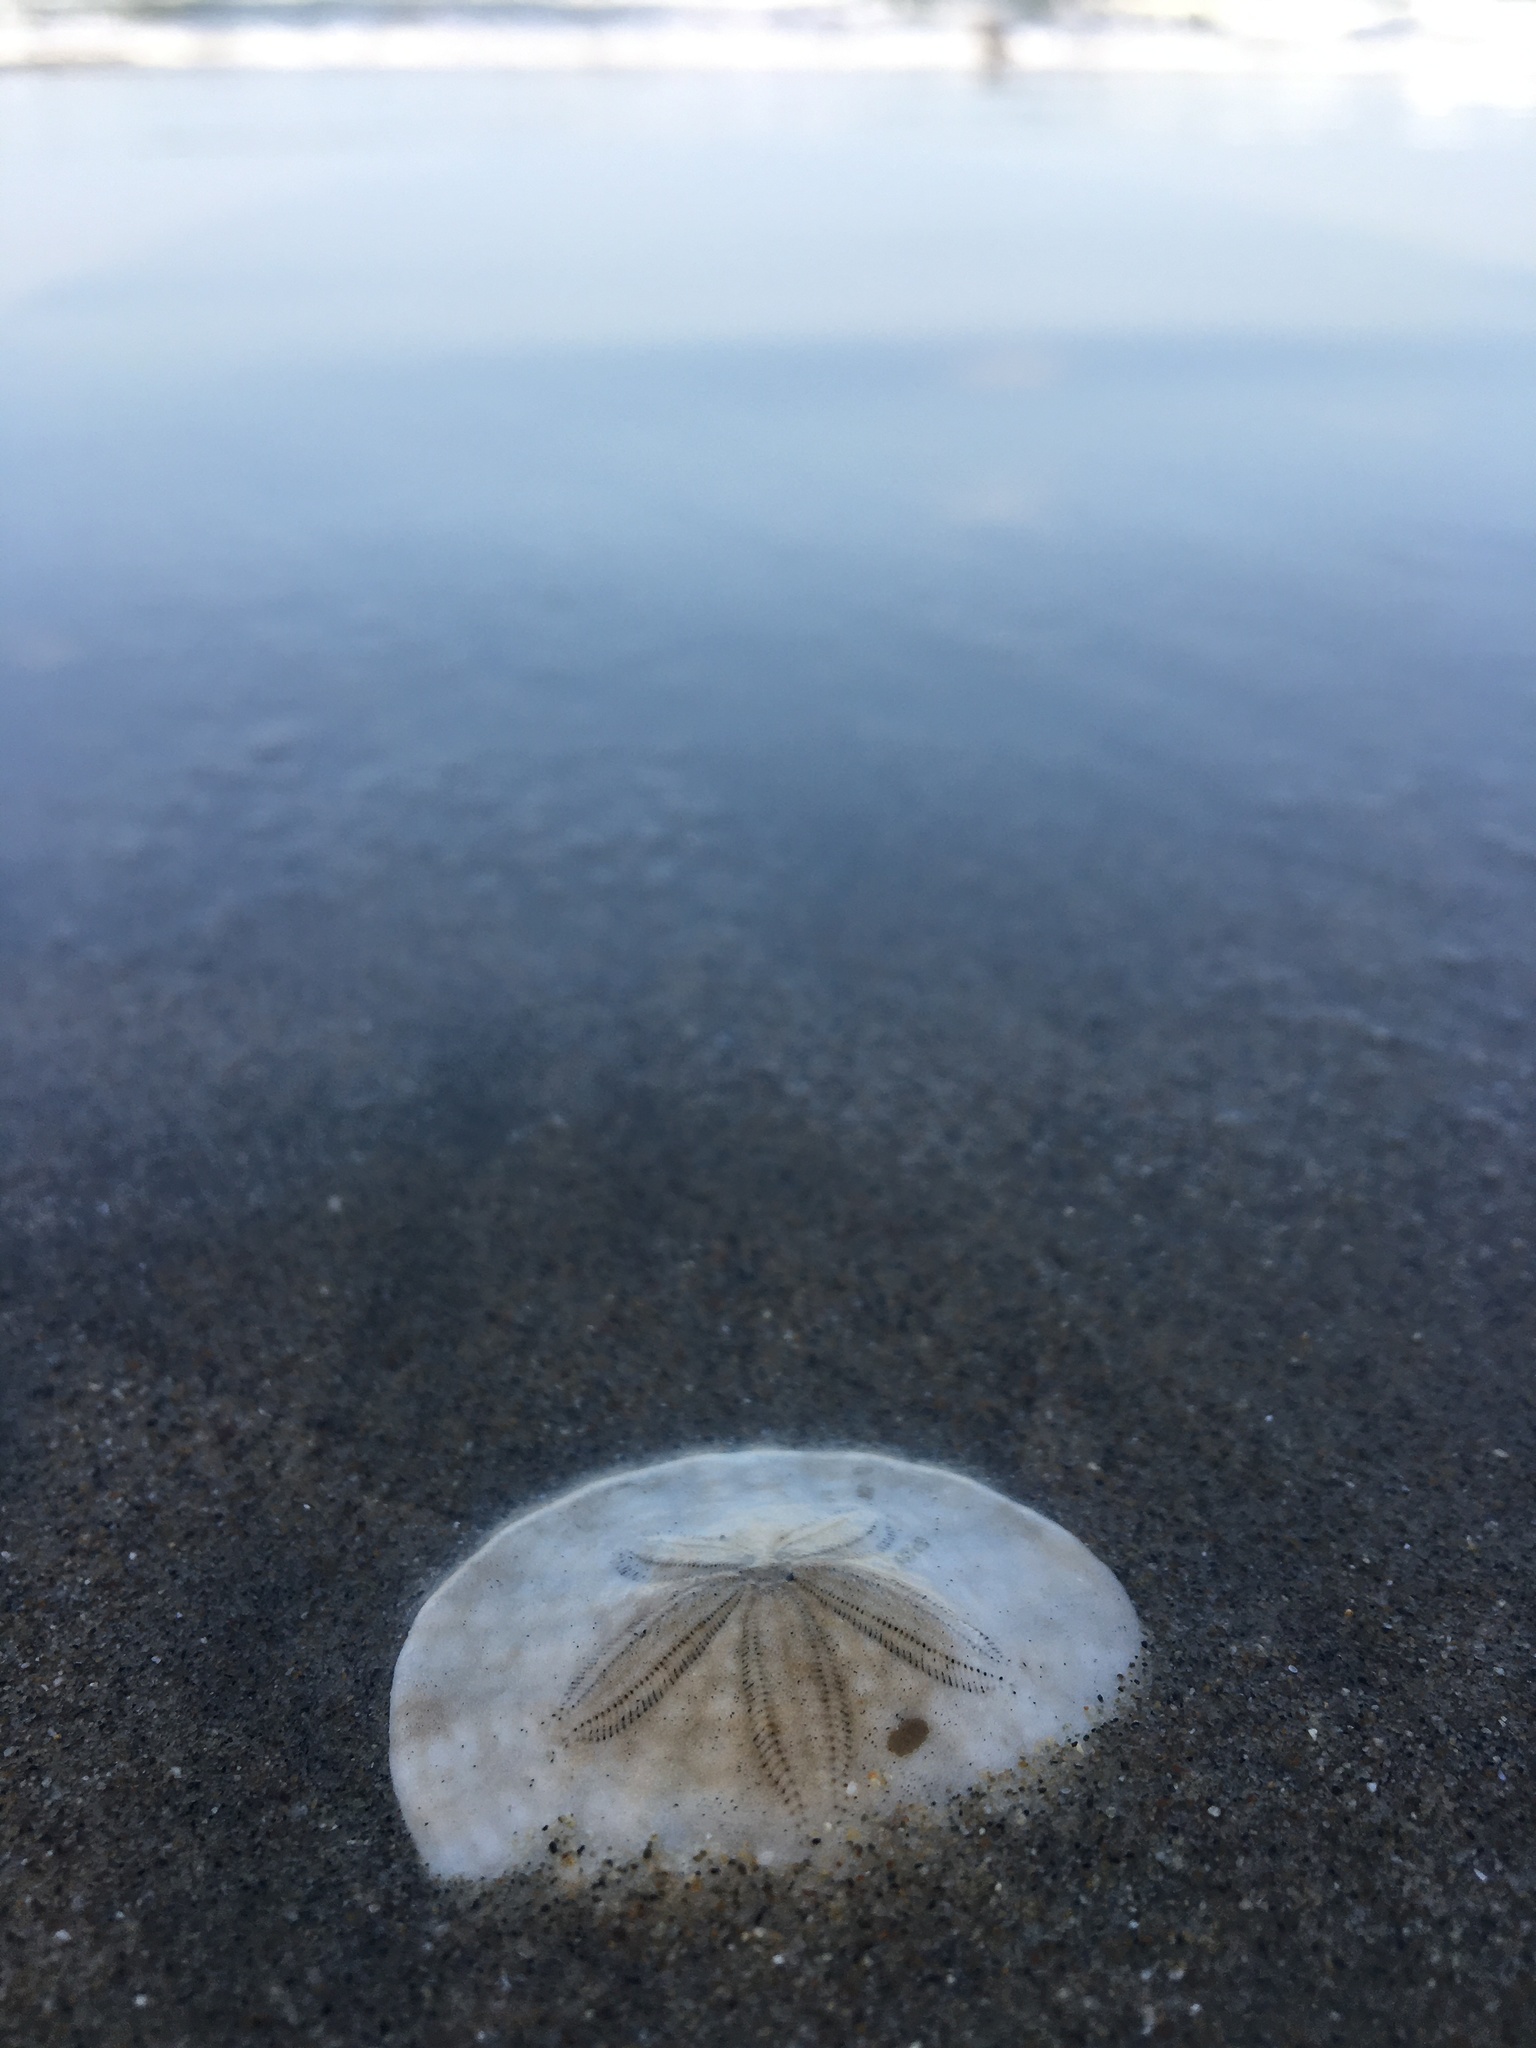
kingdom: Animalia
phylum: Echinodermata
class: Echinoidea
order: Echinolampadacea
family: Dendrasteridae
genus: Dendraster
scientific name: Dendraster excentricus
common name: Eccentric sand dollar sea urchin
